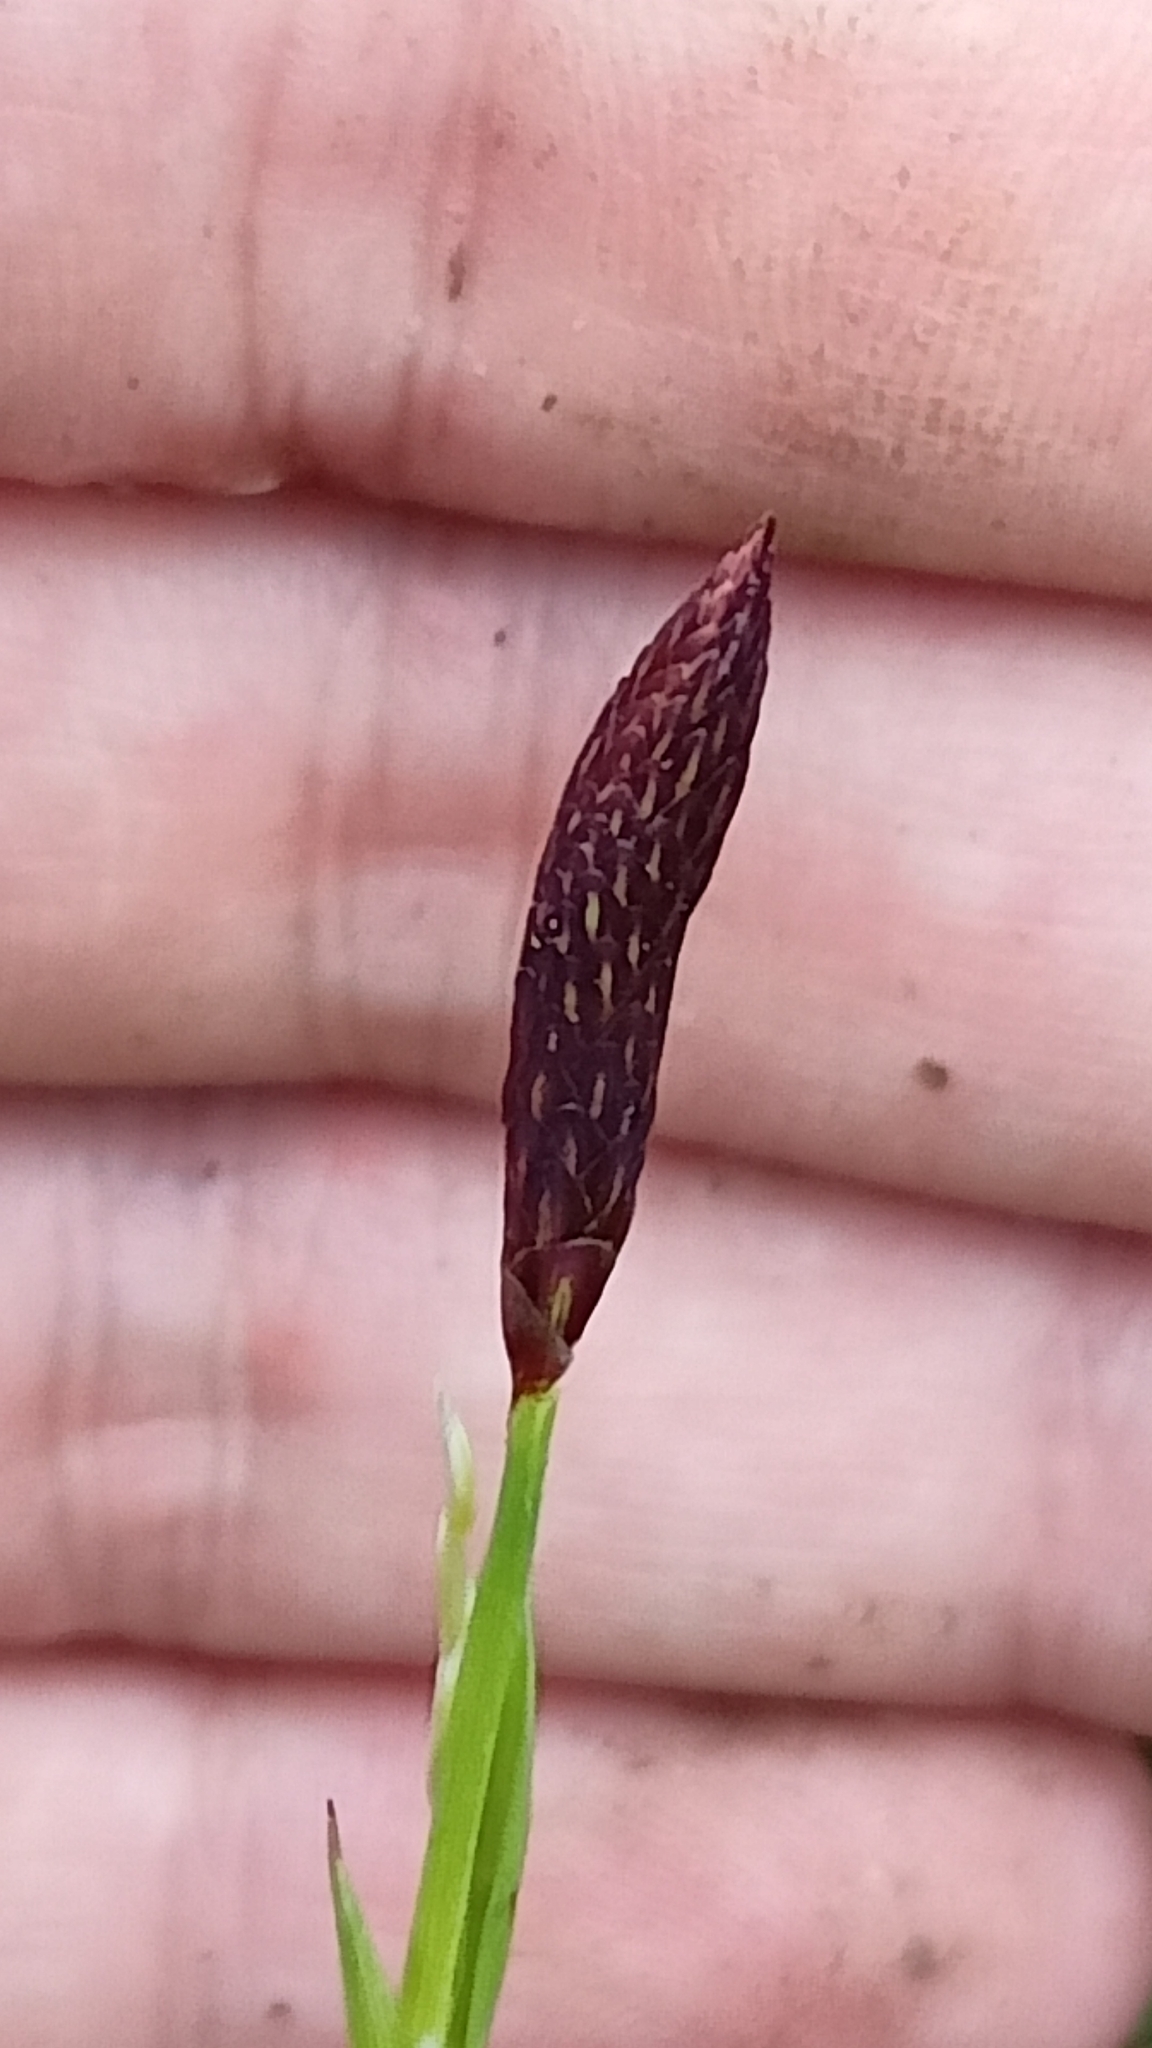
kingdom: Plantae
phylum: Tracheophyta
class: Liliopsida
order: Poales
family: Cyperaceae
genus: Carex
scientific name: Carex pilosa
